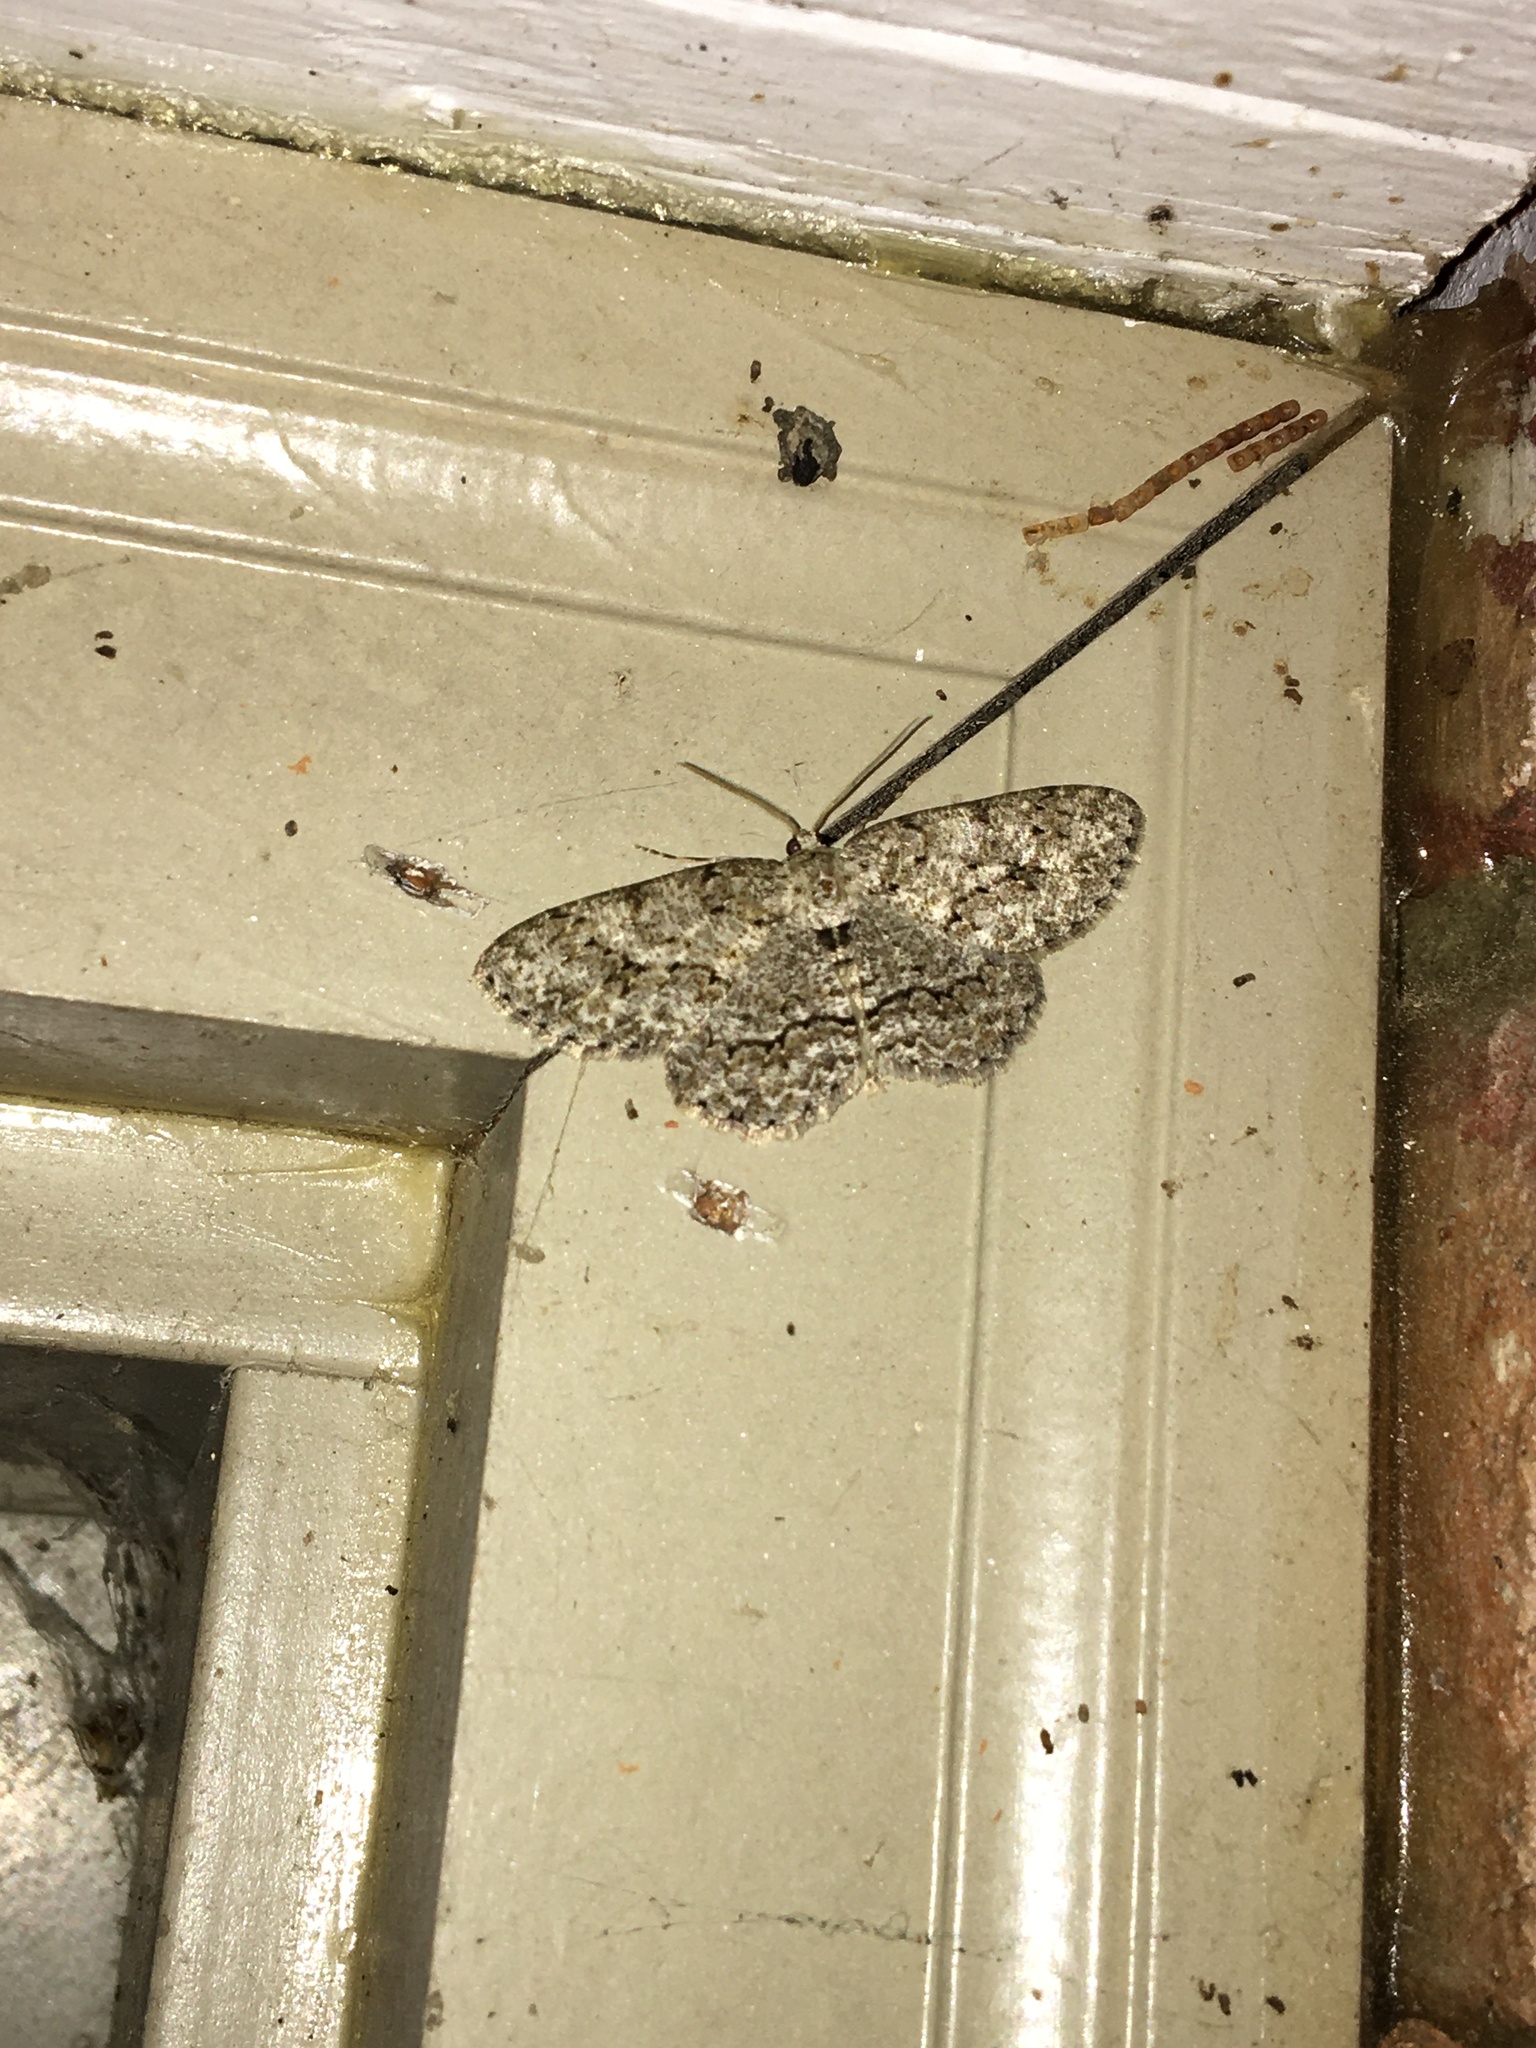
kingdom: Animalia
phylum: Arthropoda
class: Insecta
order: Lepidoptera
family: Geometridae
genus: Ectropis
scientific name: Ectropis crepuscularia
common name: Engrailed
